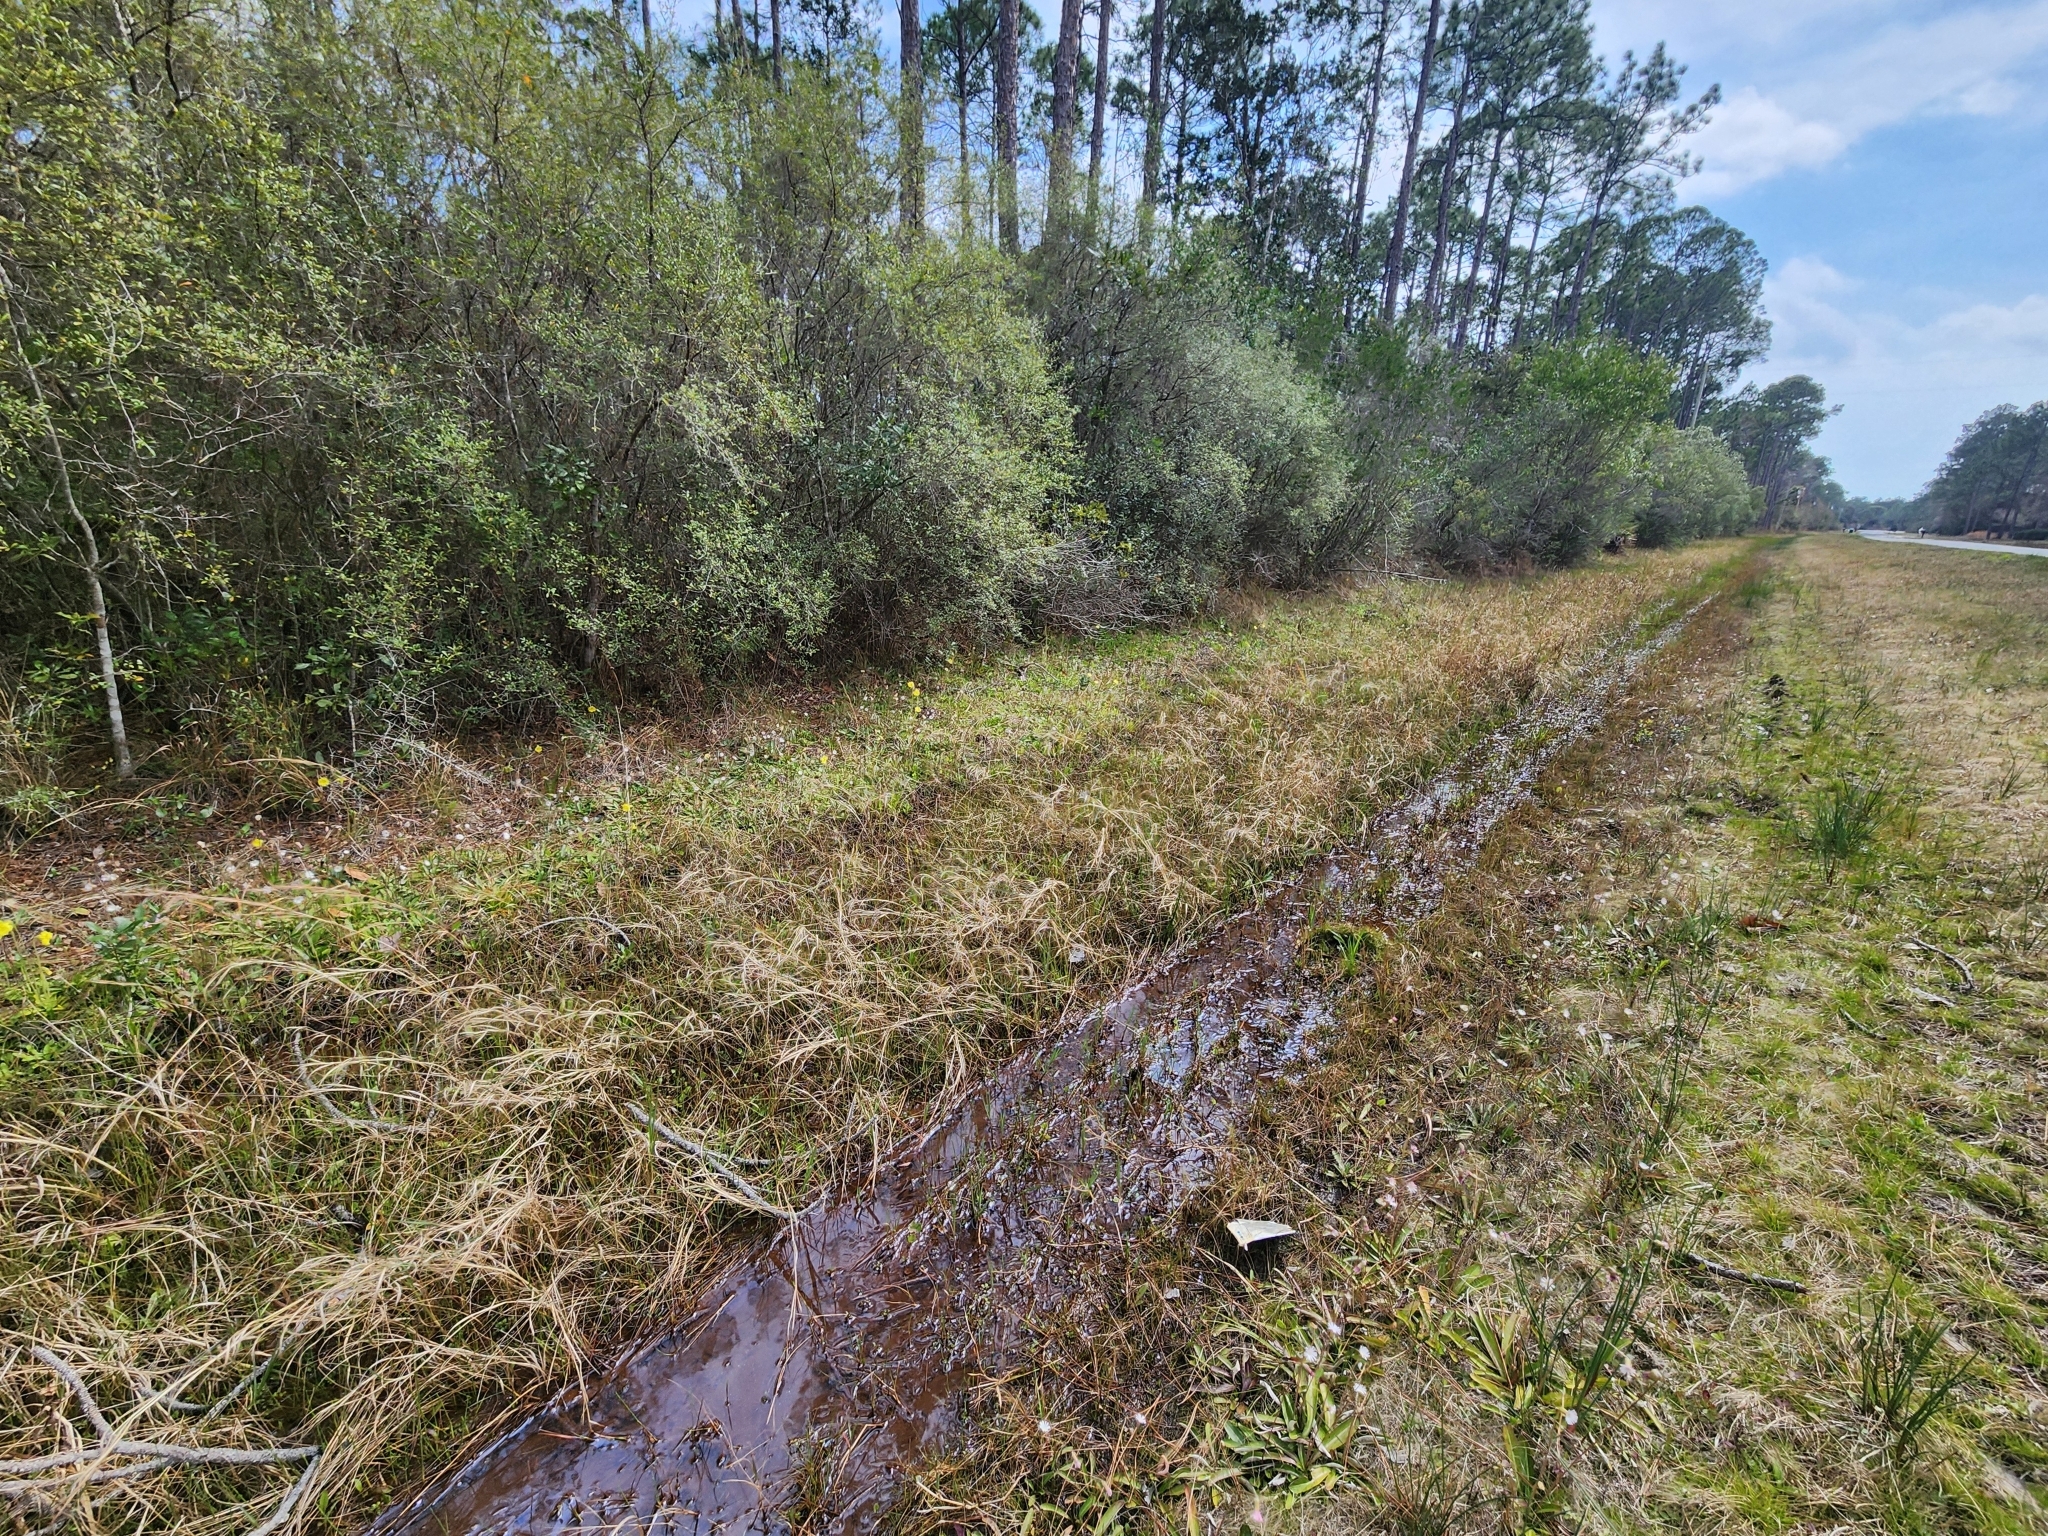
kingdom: Plantae
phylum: Tracheophyta
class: Magnoliopsida
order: Lamiales
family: Lentibulariaceae
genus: Pinguicula
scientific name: Pinguicula lutea
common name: Yellow butterwort
